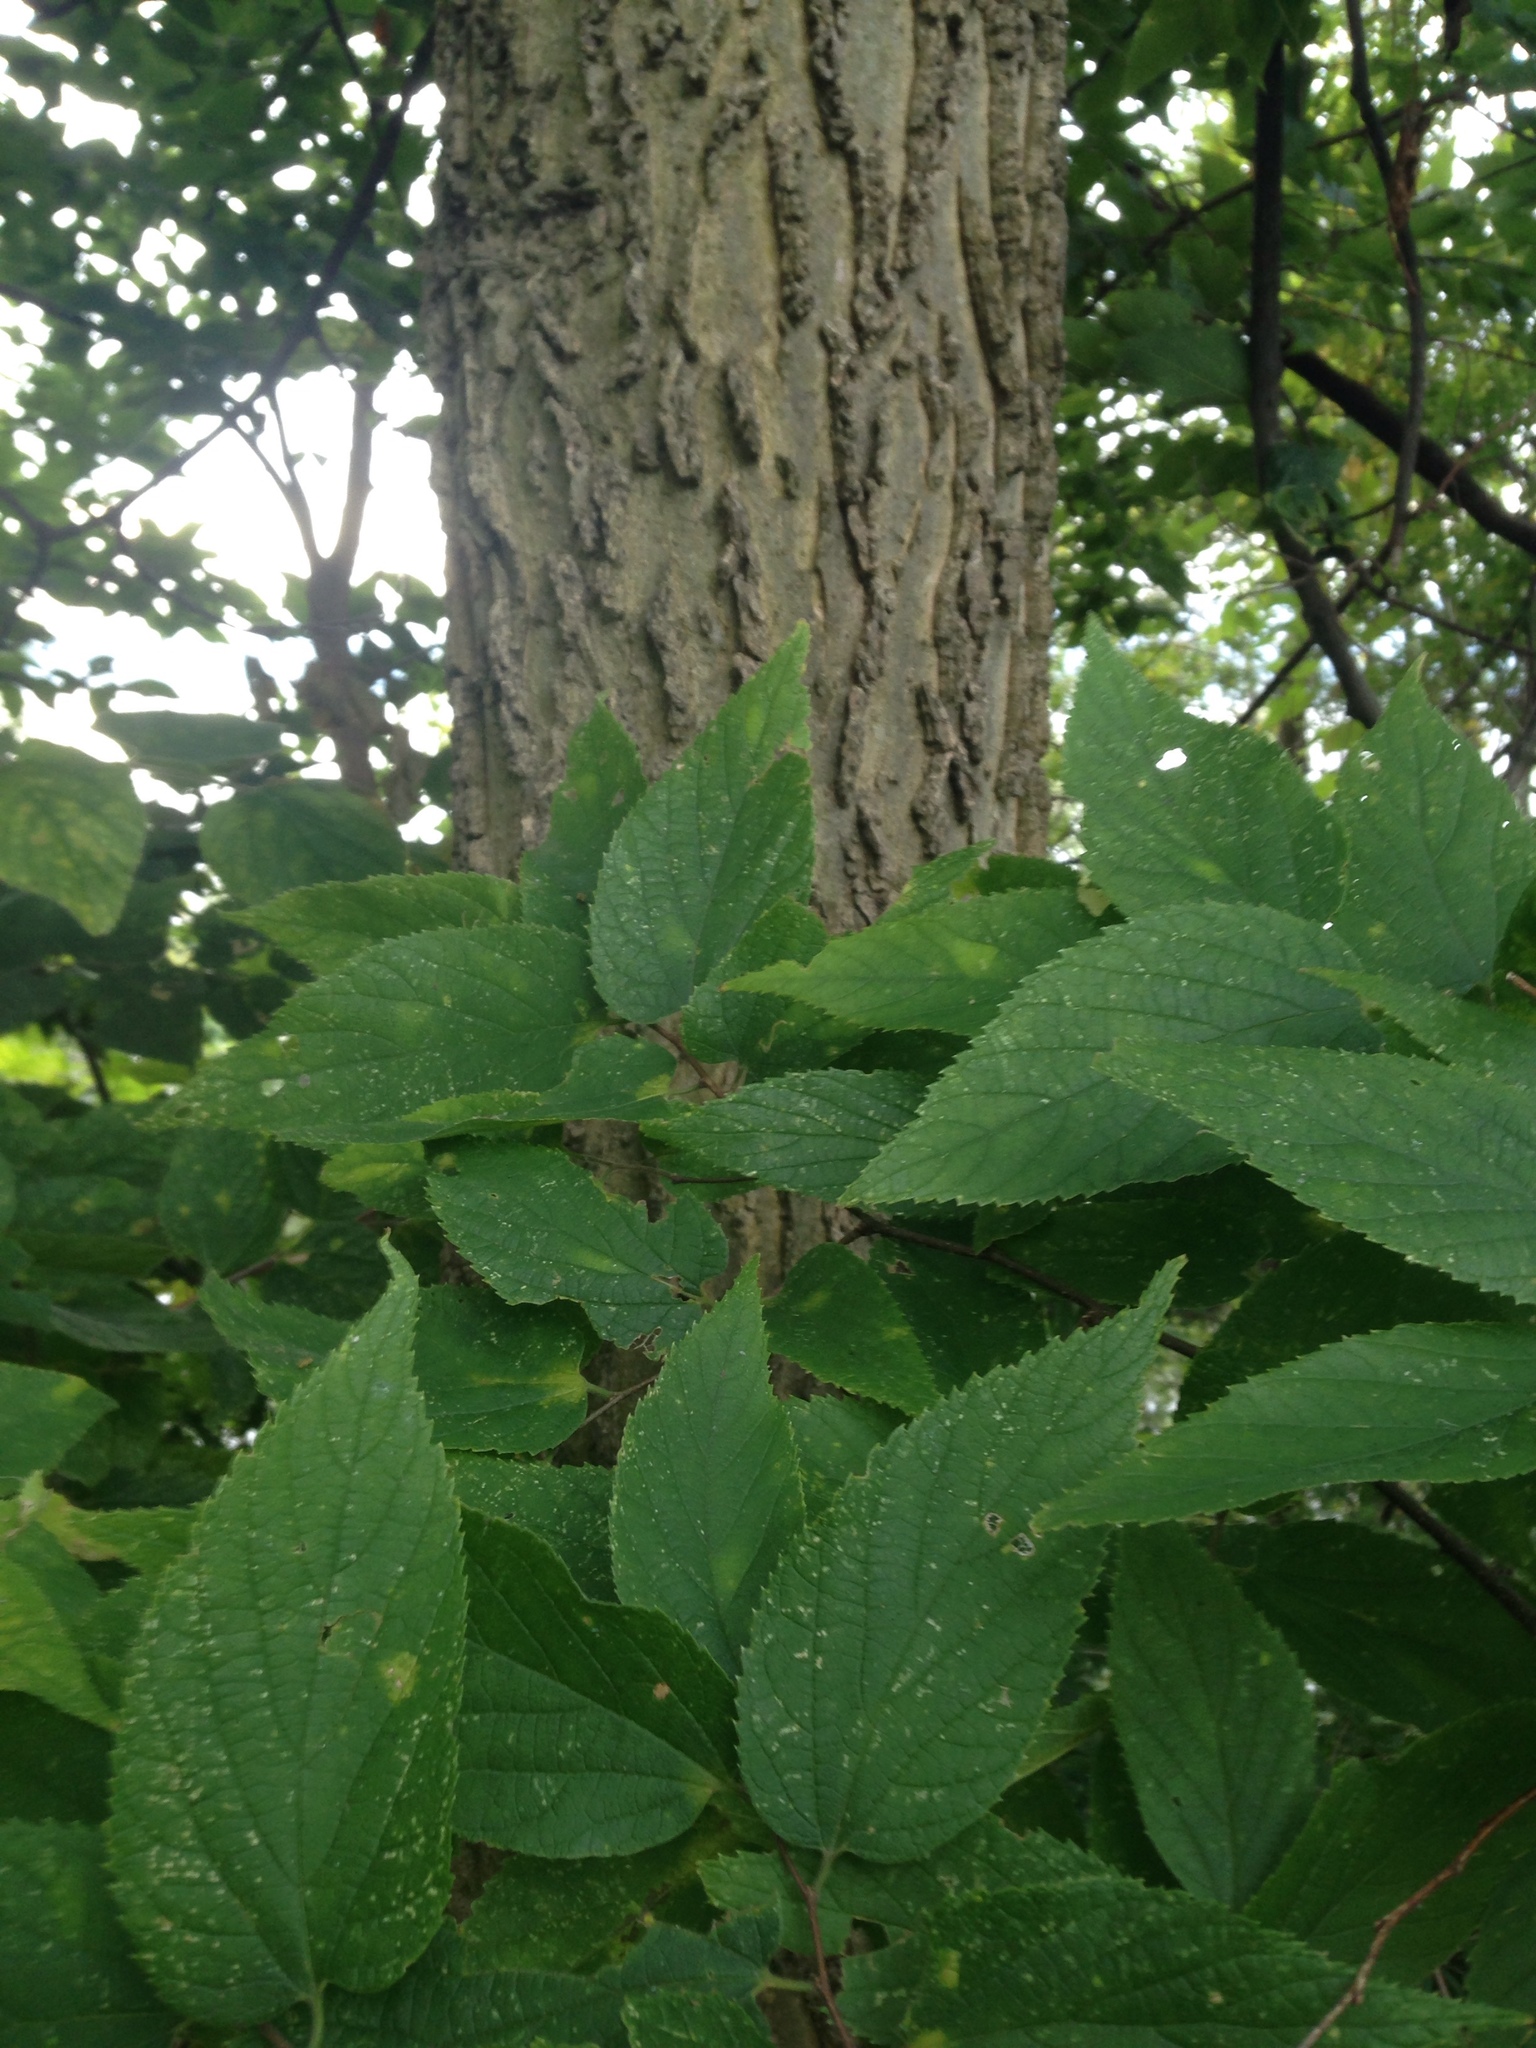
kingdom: Plantae
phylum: Tracheophyta
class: Magnoliopsida
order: Rosales
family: Cannabaceae
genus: Celtis
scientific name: Celtis occidentalis
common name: Common hackberry
